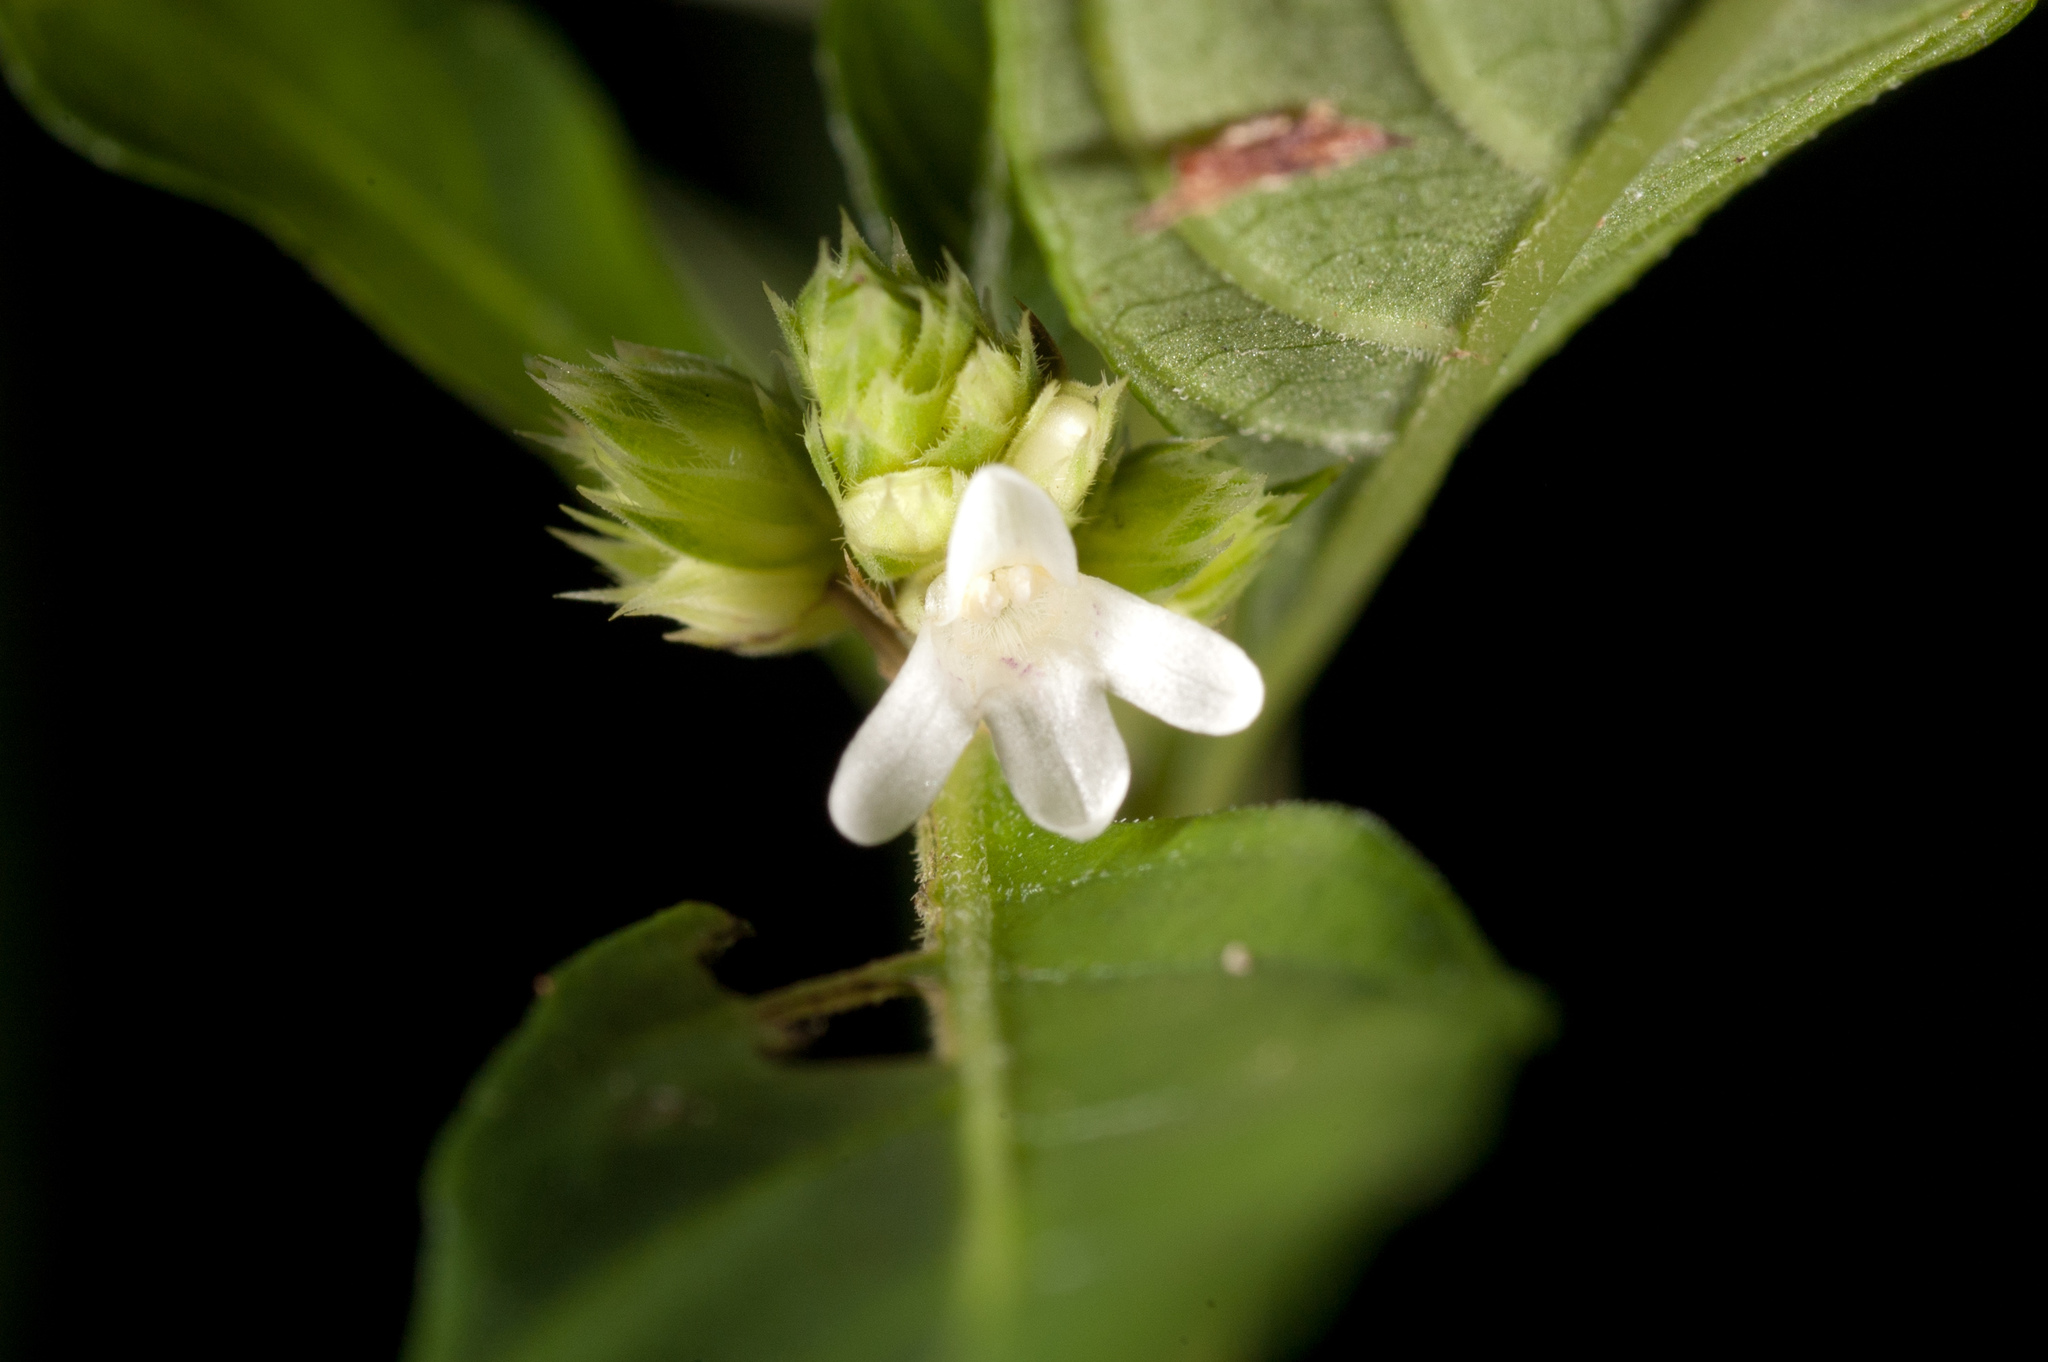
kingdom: Plantae
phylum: Tracheophyta
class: Magnoliopsida
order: Lamiales
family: Acanthaceae
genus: Lepidagathis
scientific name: Lepidagathis formosensis
